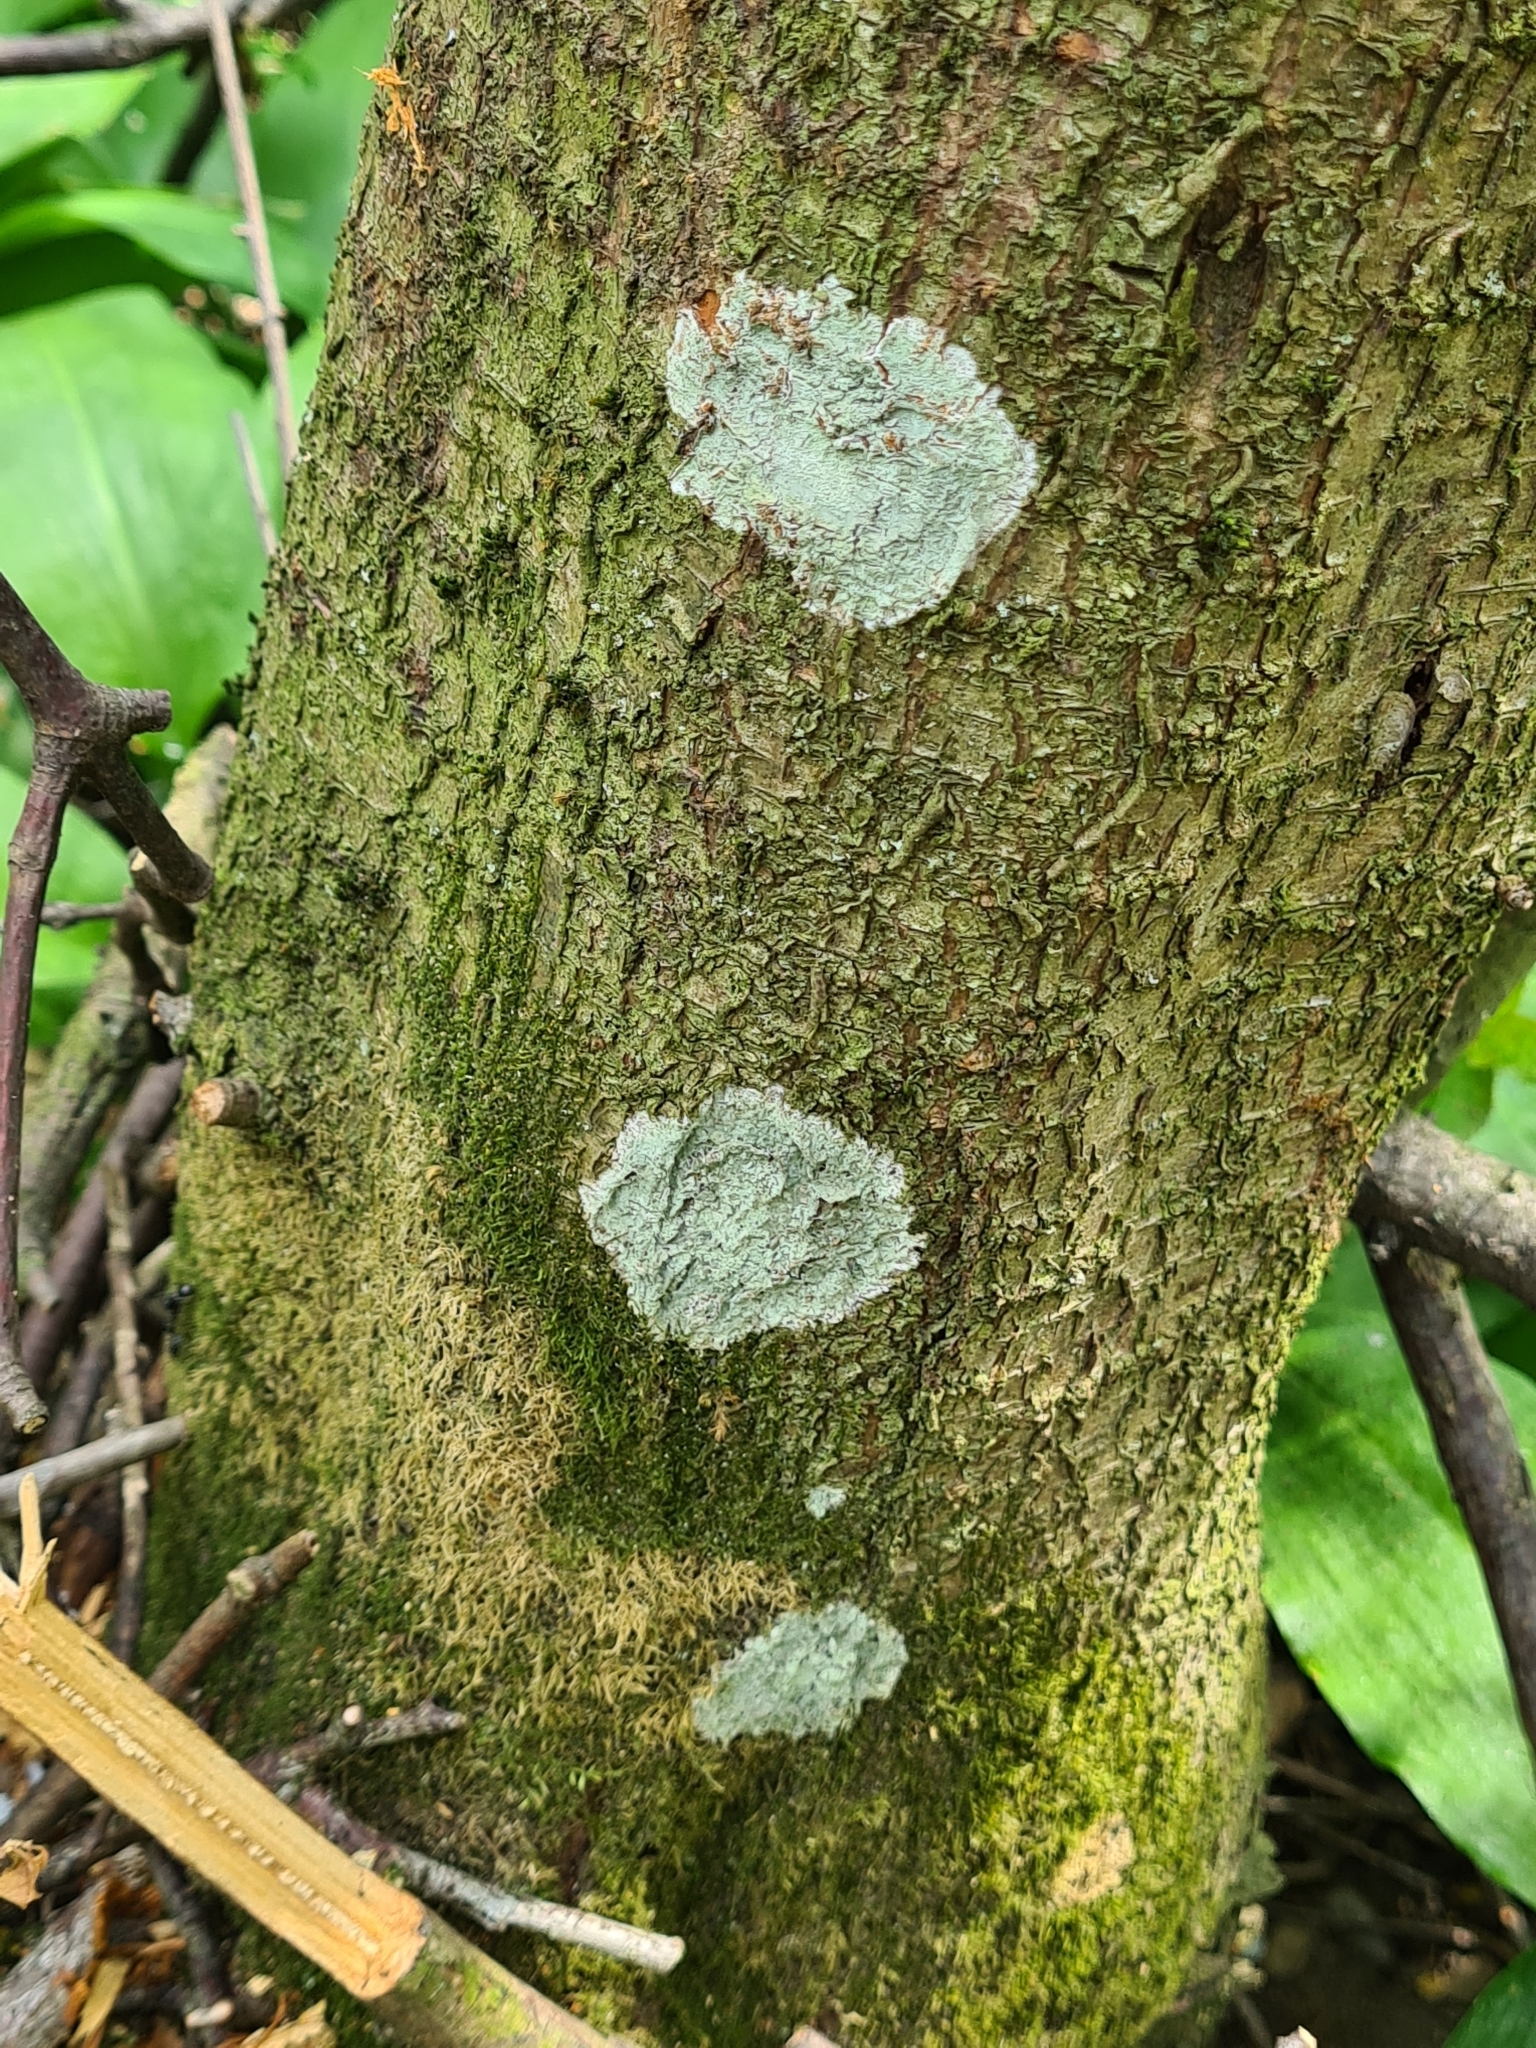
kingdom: Fungi
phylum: Ascomycota
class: Lecanoromycetes
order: Ostropales
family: Phlyctidaceae
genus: Phlyctis
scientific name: Phlyctis argena
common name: Whitewash lichen
